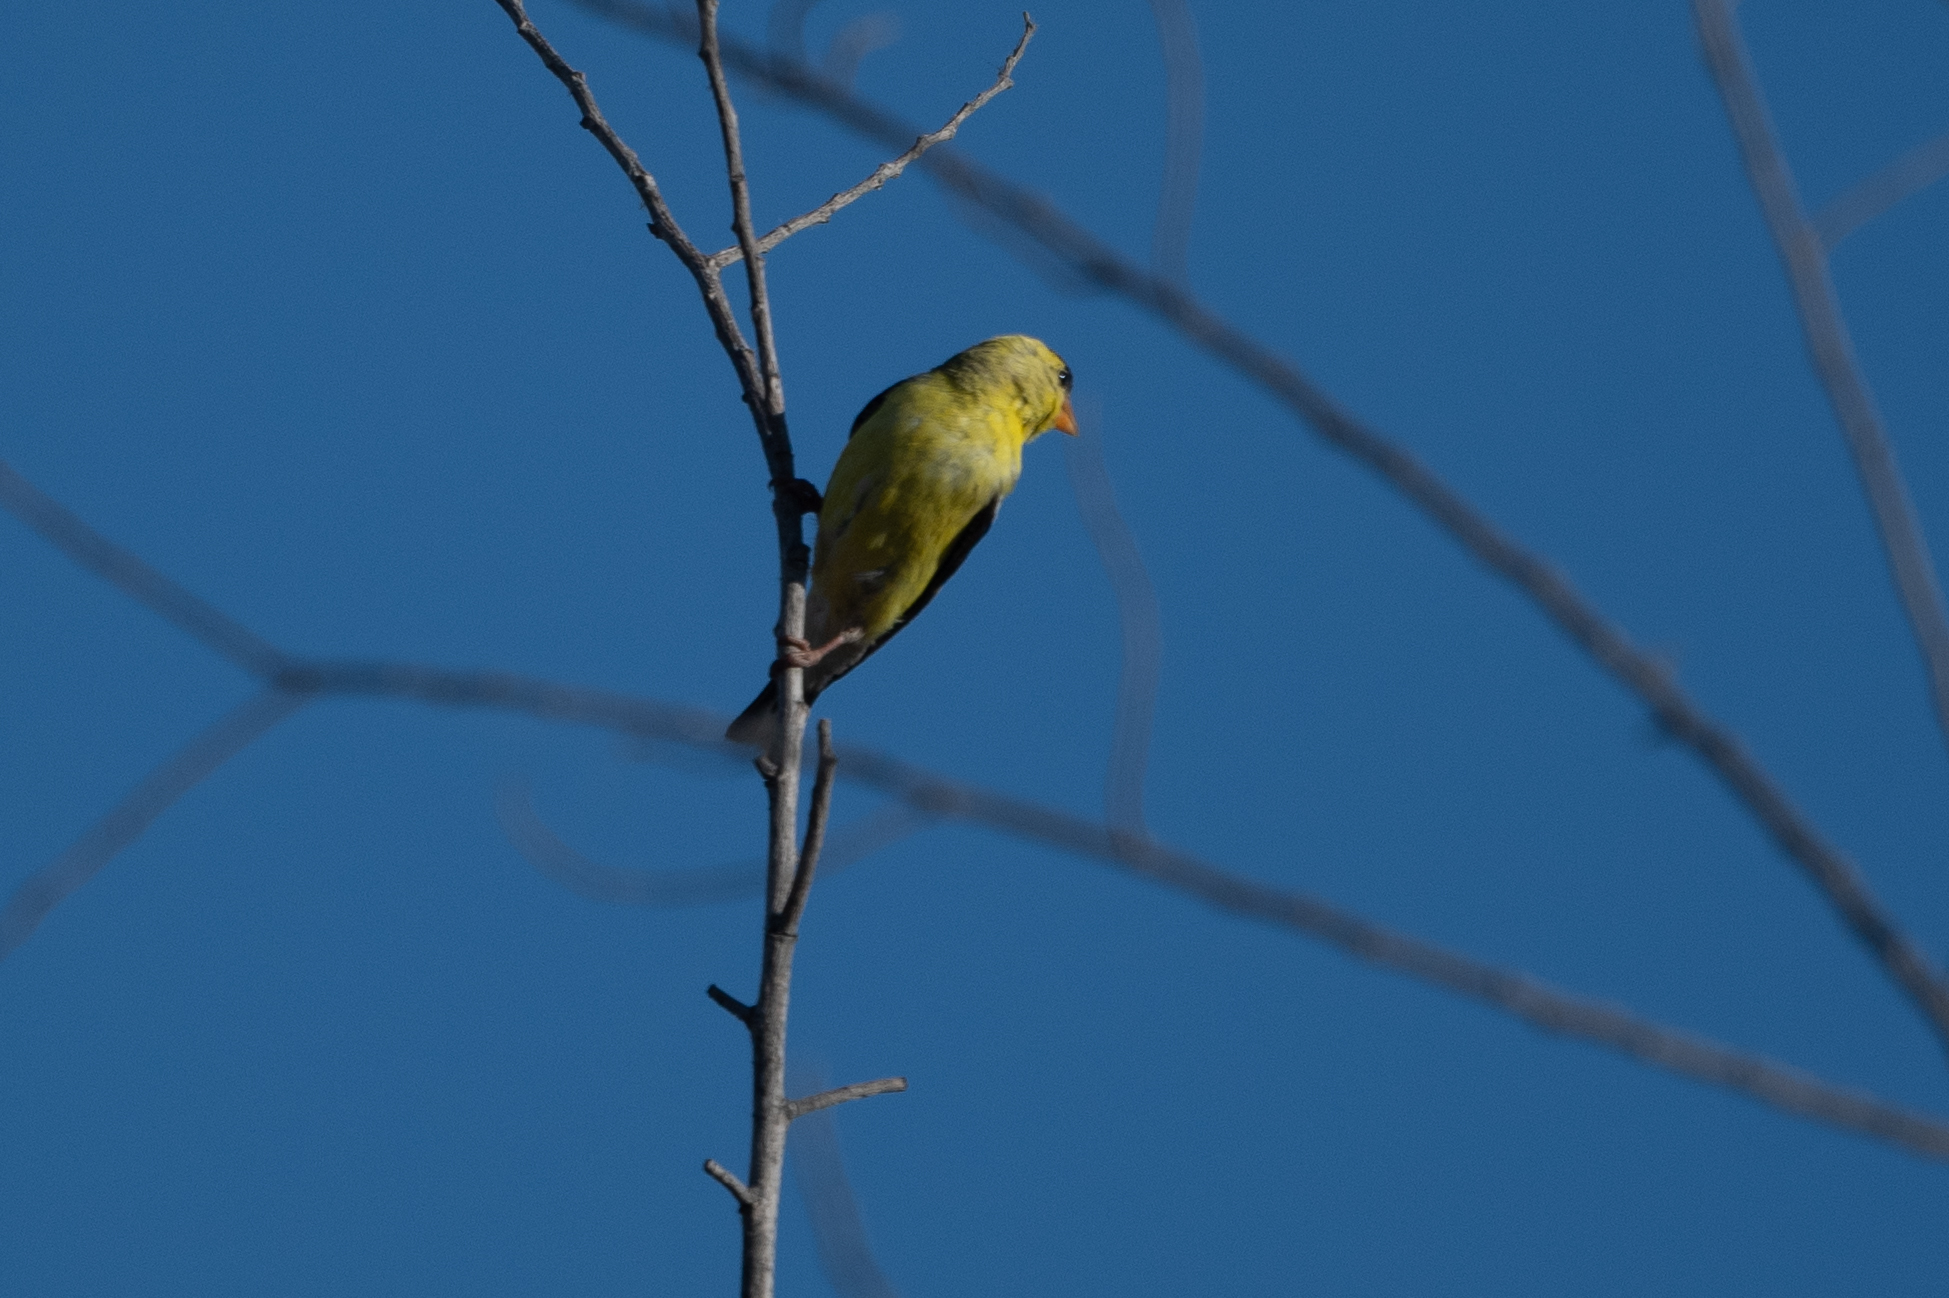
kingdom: Animalia
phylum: Chordata
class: Aves
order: Passeriformes
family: Fringillidae
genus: Spinus
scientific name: Spinus tristis
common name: American goldfinch
